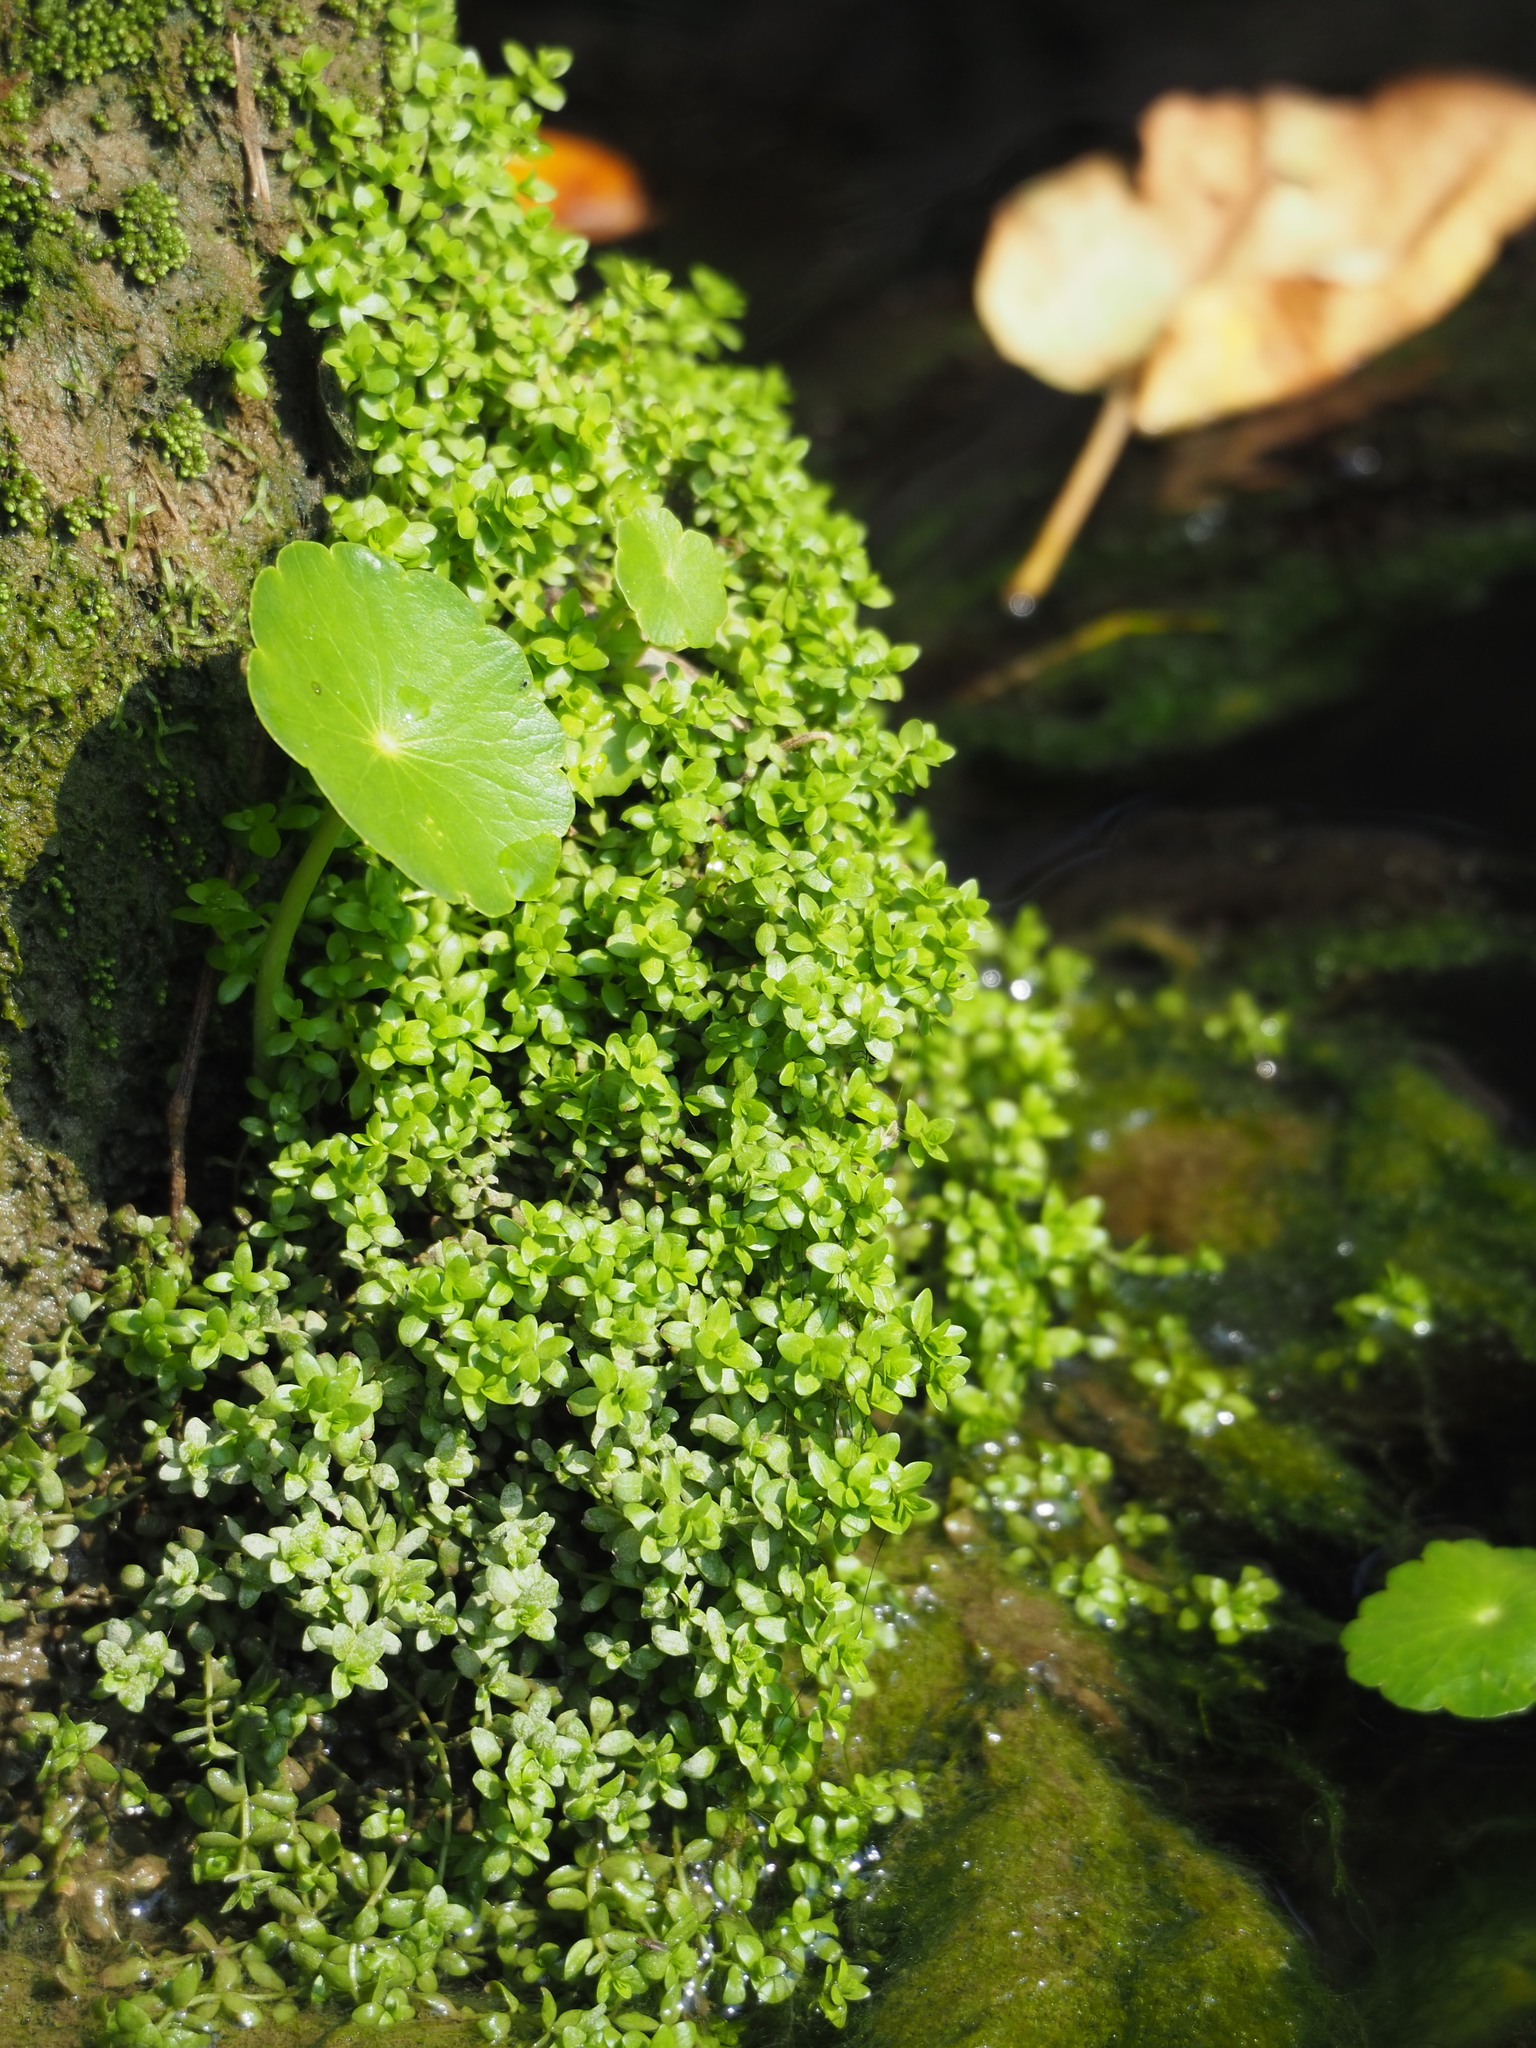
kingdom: Plantae
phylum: Tracheophyta
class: Magnoliopsida
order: Rosales
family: Urticaceae
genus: Pilea
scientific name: Pilea microphylla
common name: Artillery-plant
